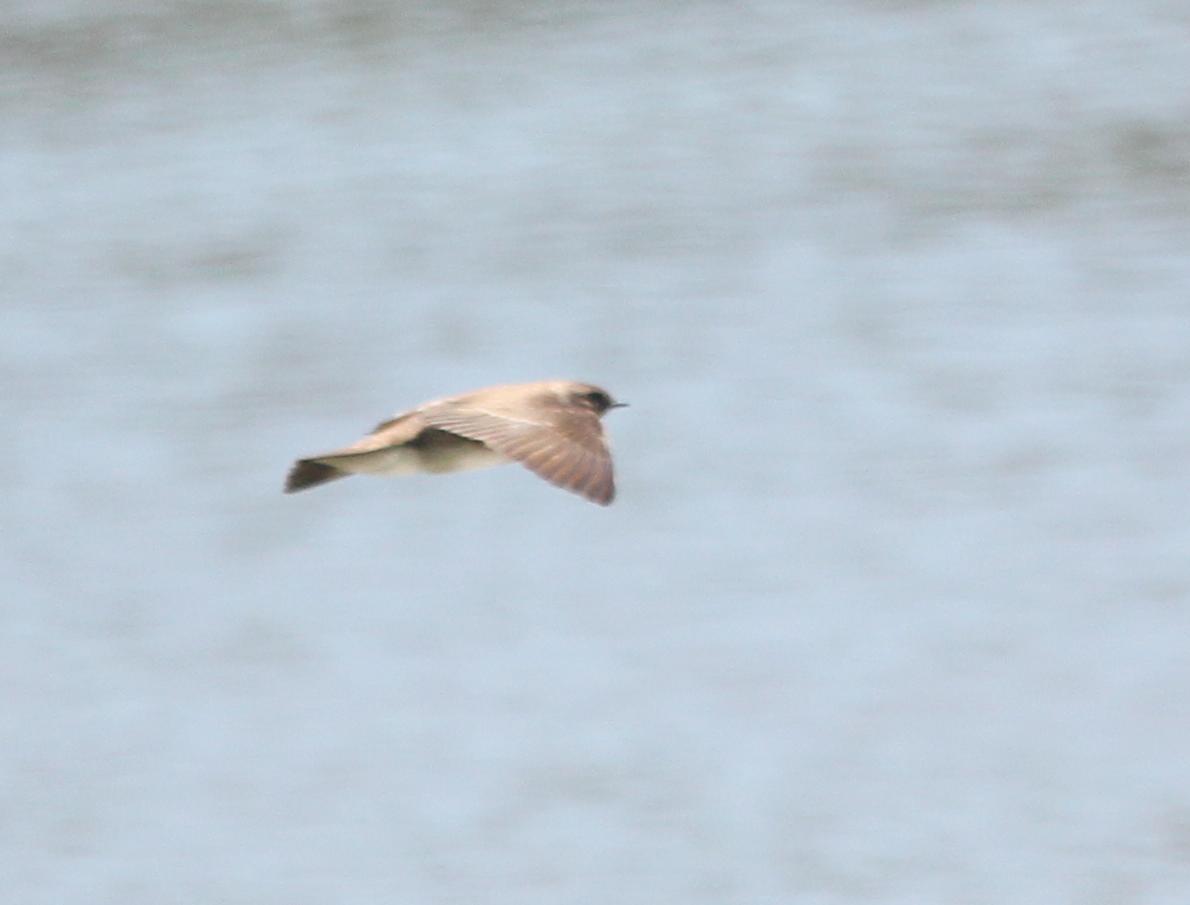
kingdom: Animalia
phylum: Chordata
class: Aves
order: Passeriformes
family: Hirundinidae
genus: Stelgidopteryx
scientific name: Stelgidopteryx serripennis
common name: Northern rough-winged swallow
